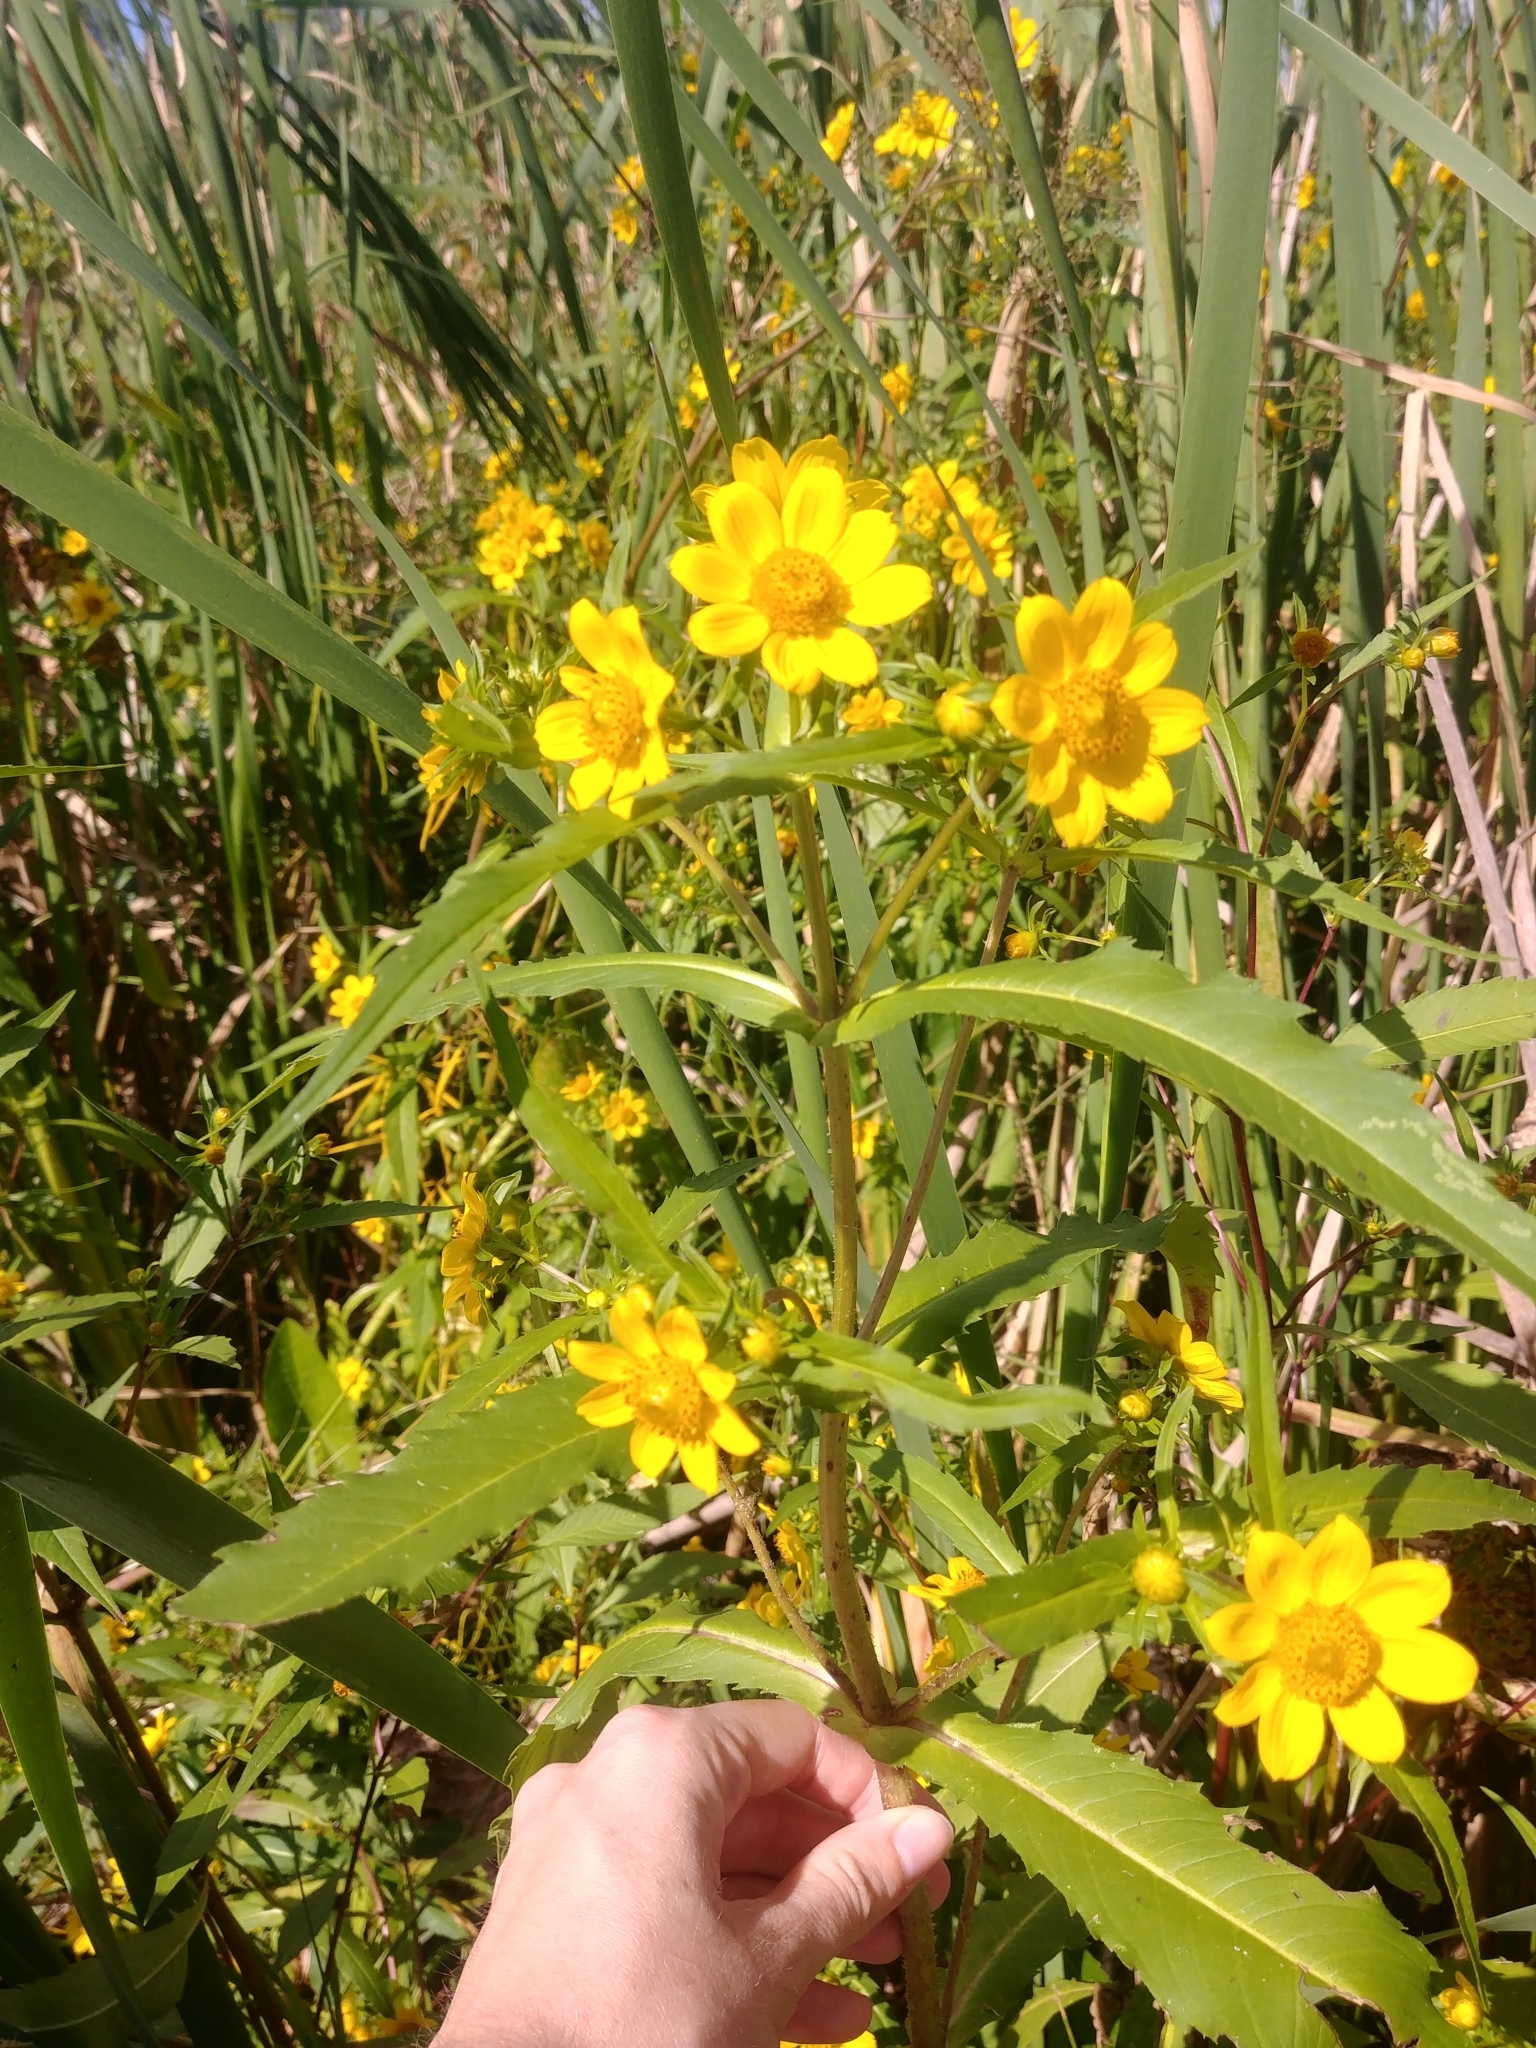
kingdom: Plantae
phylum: Tracheophyta
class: Magnoliopsida
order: Asterales
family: Asteraceae
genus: Bidens
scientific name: Bidens cernua
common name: Nodding bur-marigold
